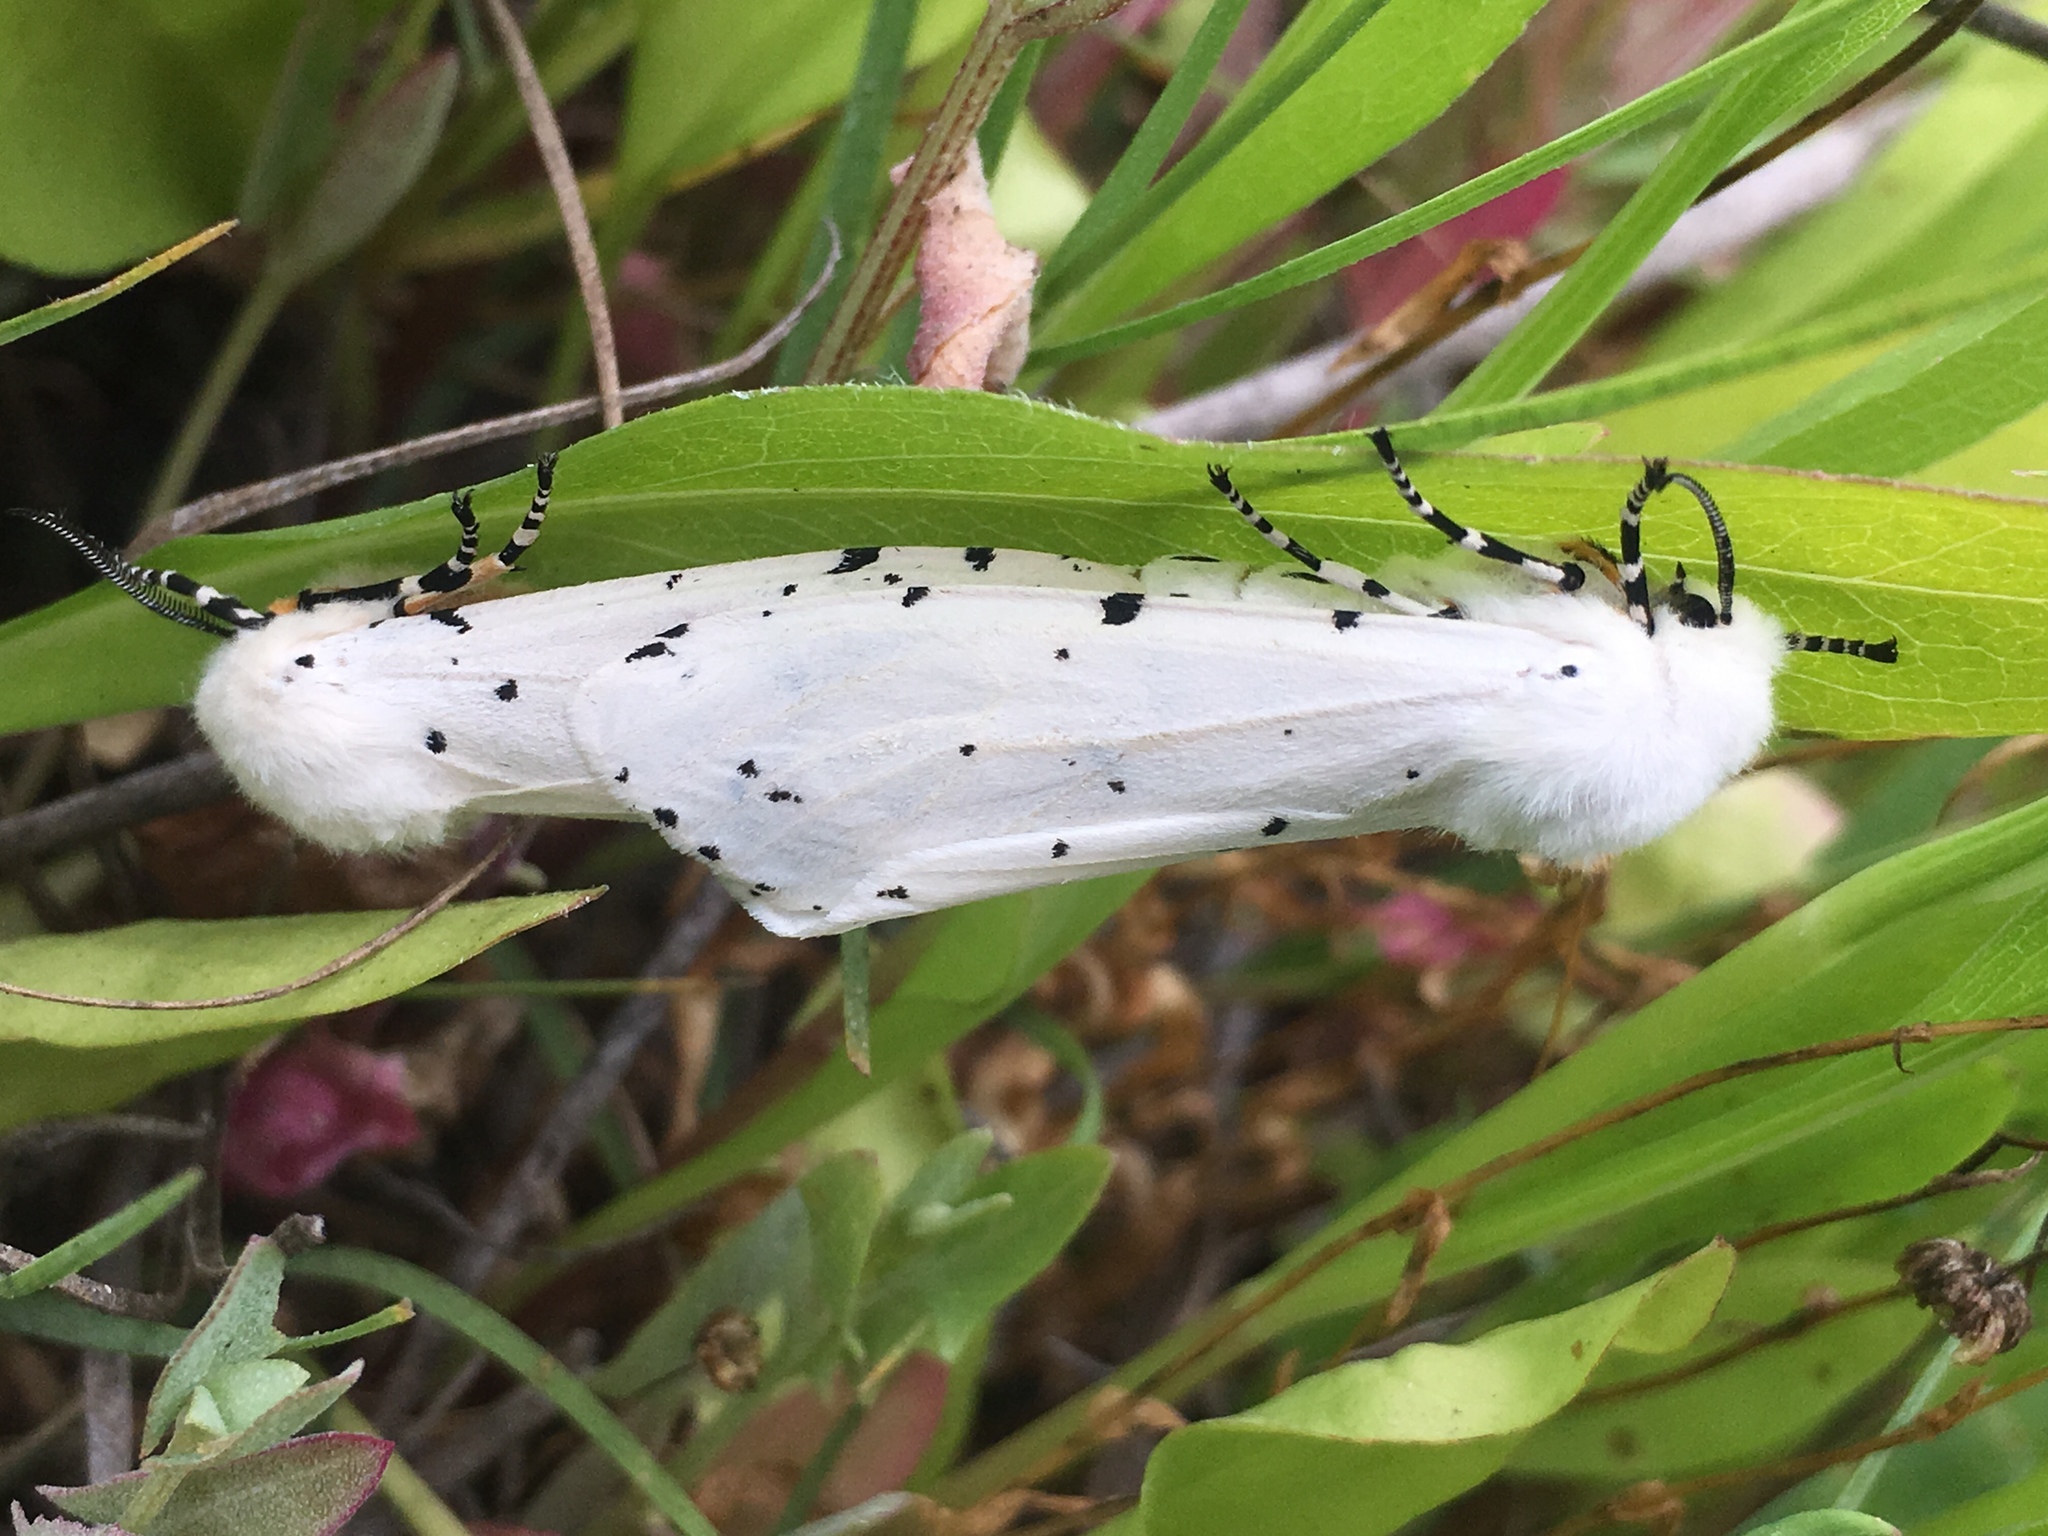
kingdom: Animalia
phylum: Arthropoda
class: Insecta
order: Lepidoptera
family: Erebidae
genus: Estigmene
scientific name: Estigmene acrea
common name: Salt marsh moth
